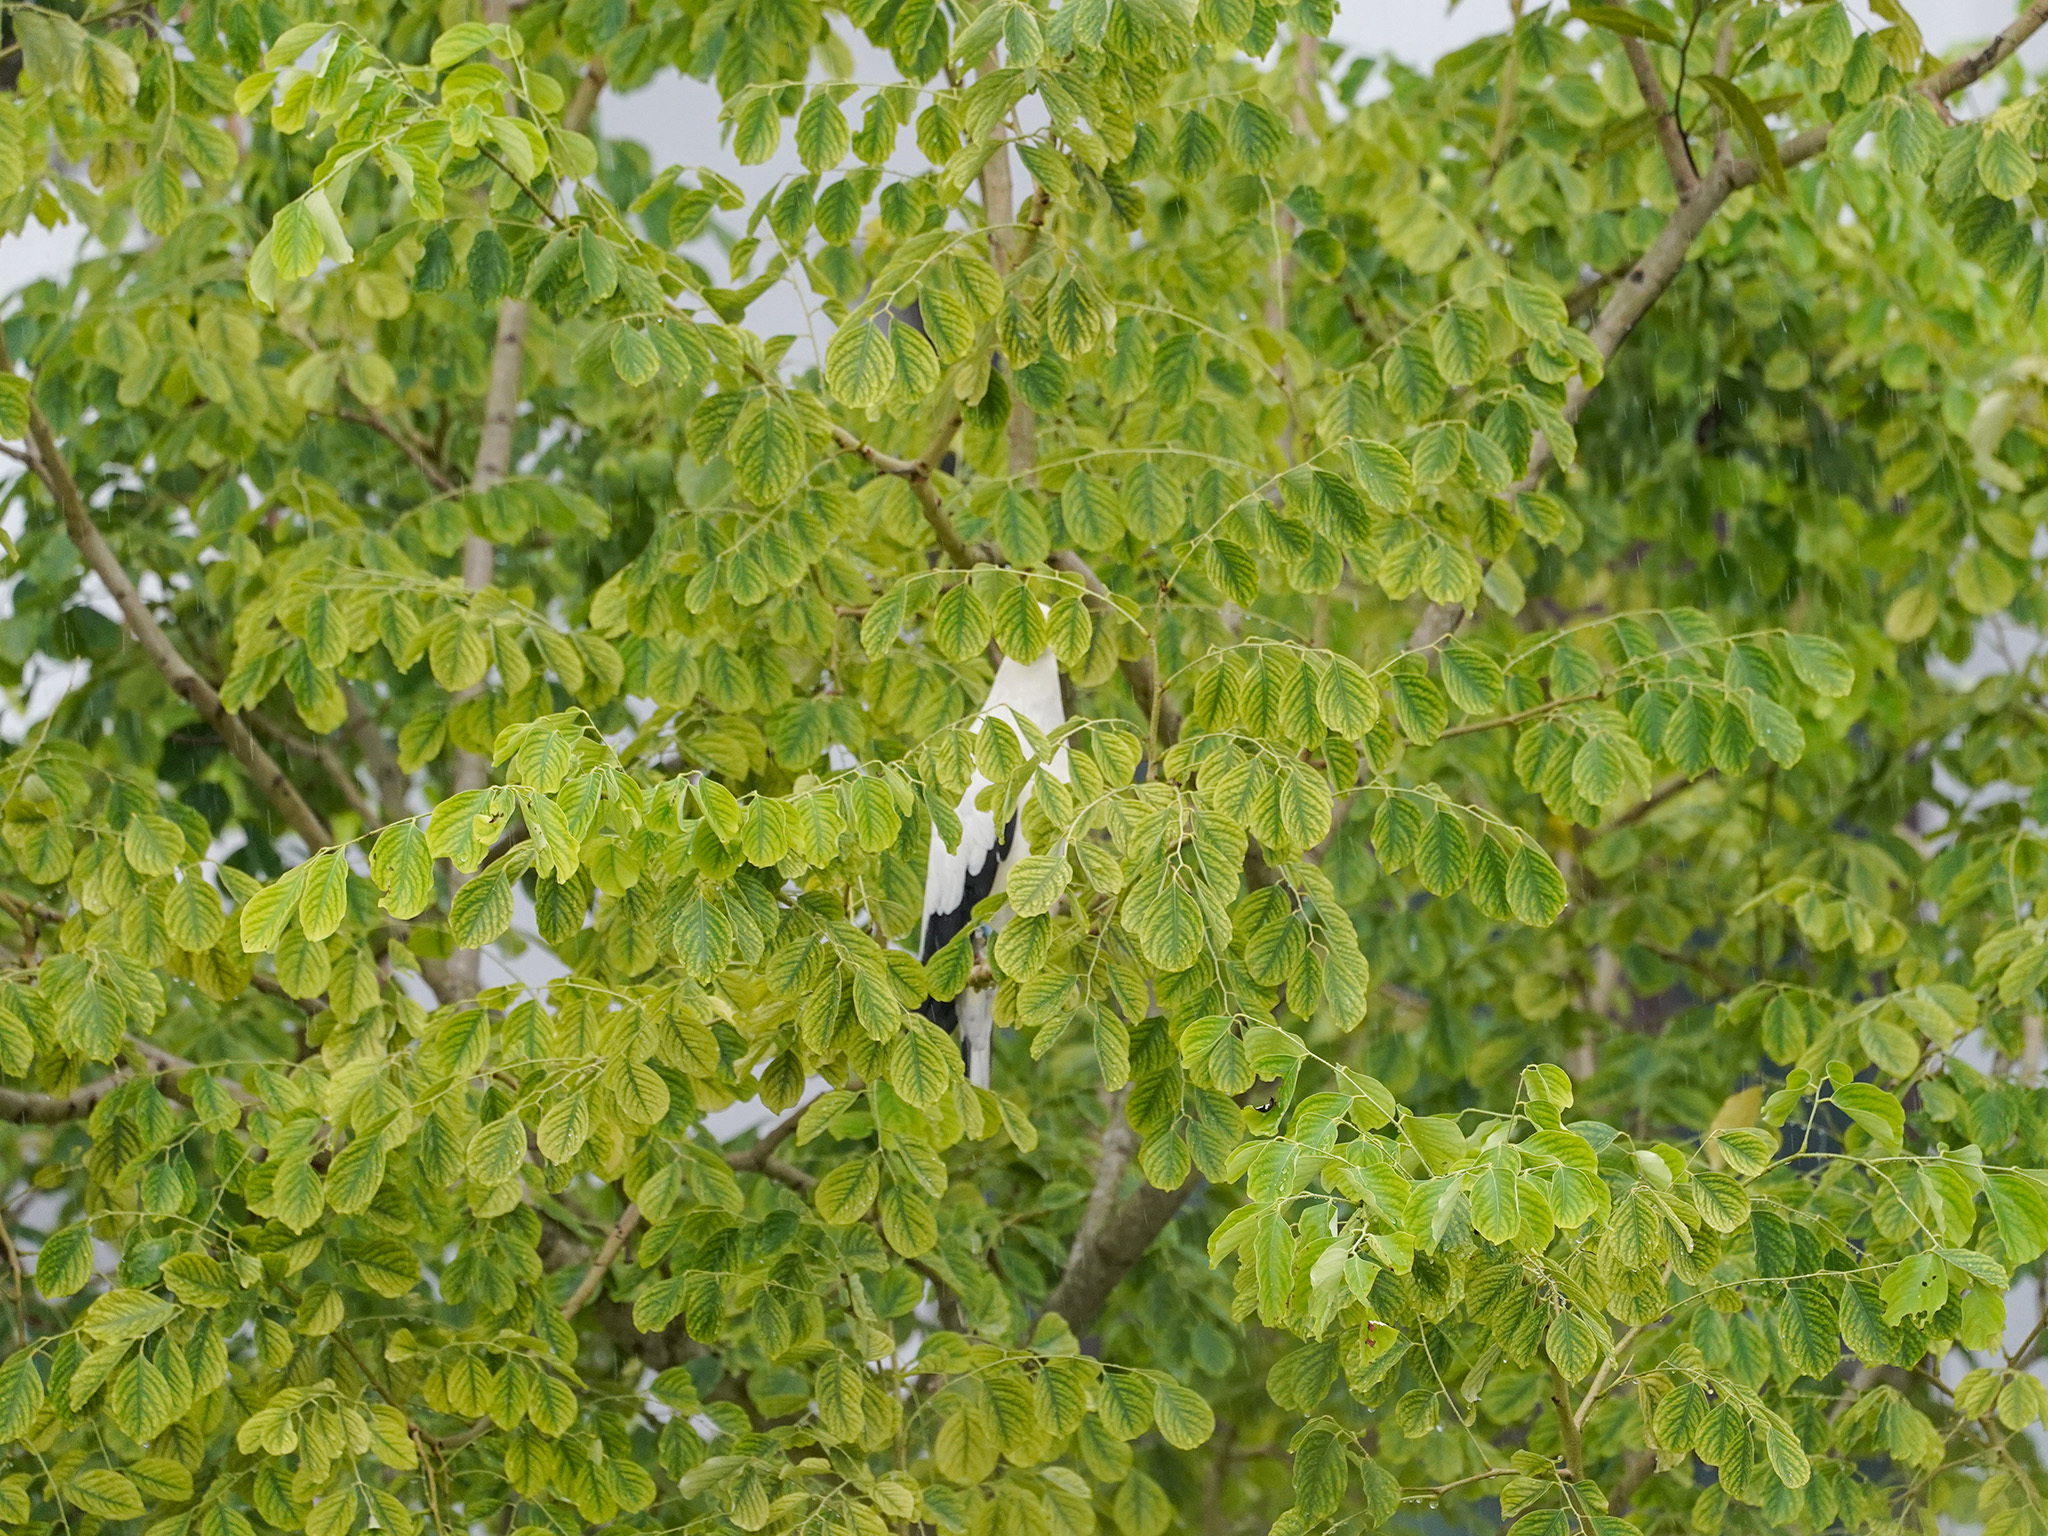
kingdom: Animalia
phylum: Chordata
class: Aves
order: Columbiformes
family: Columbidae
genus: Ducula
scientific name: Ducula bicolor
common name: Pied imperial pigeon
